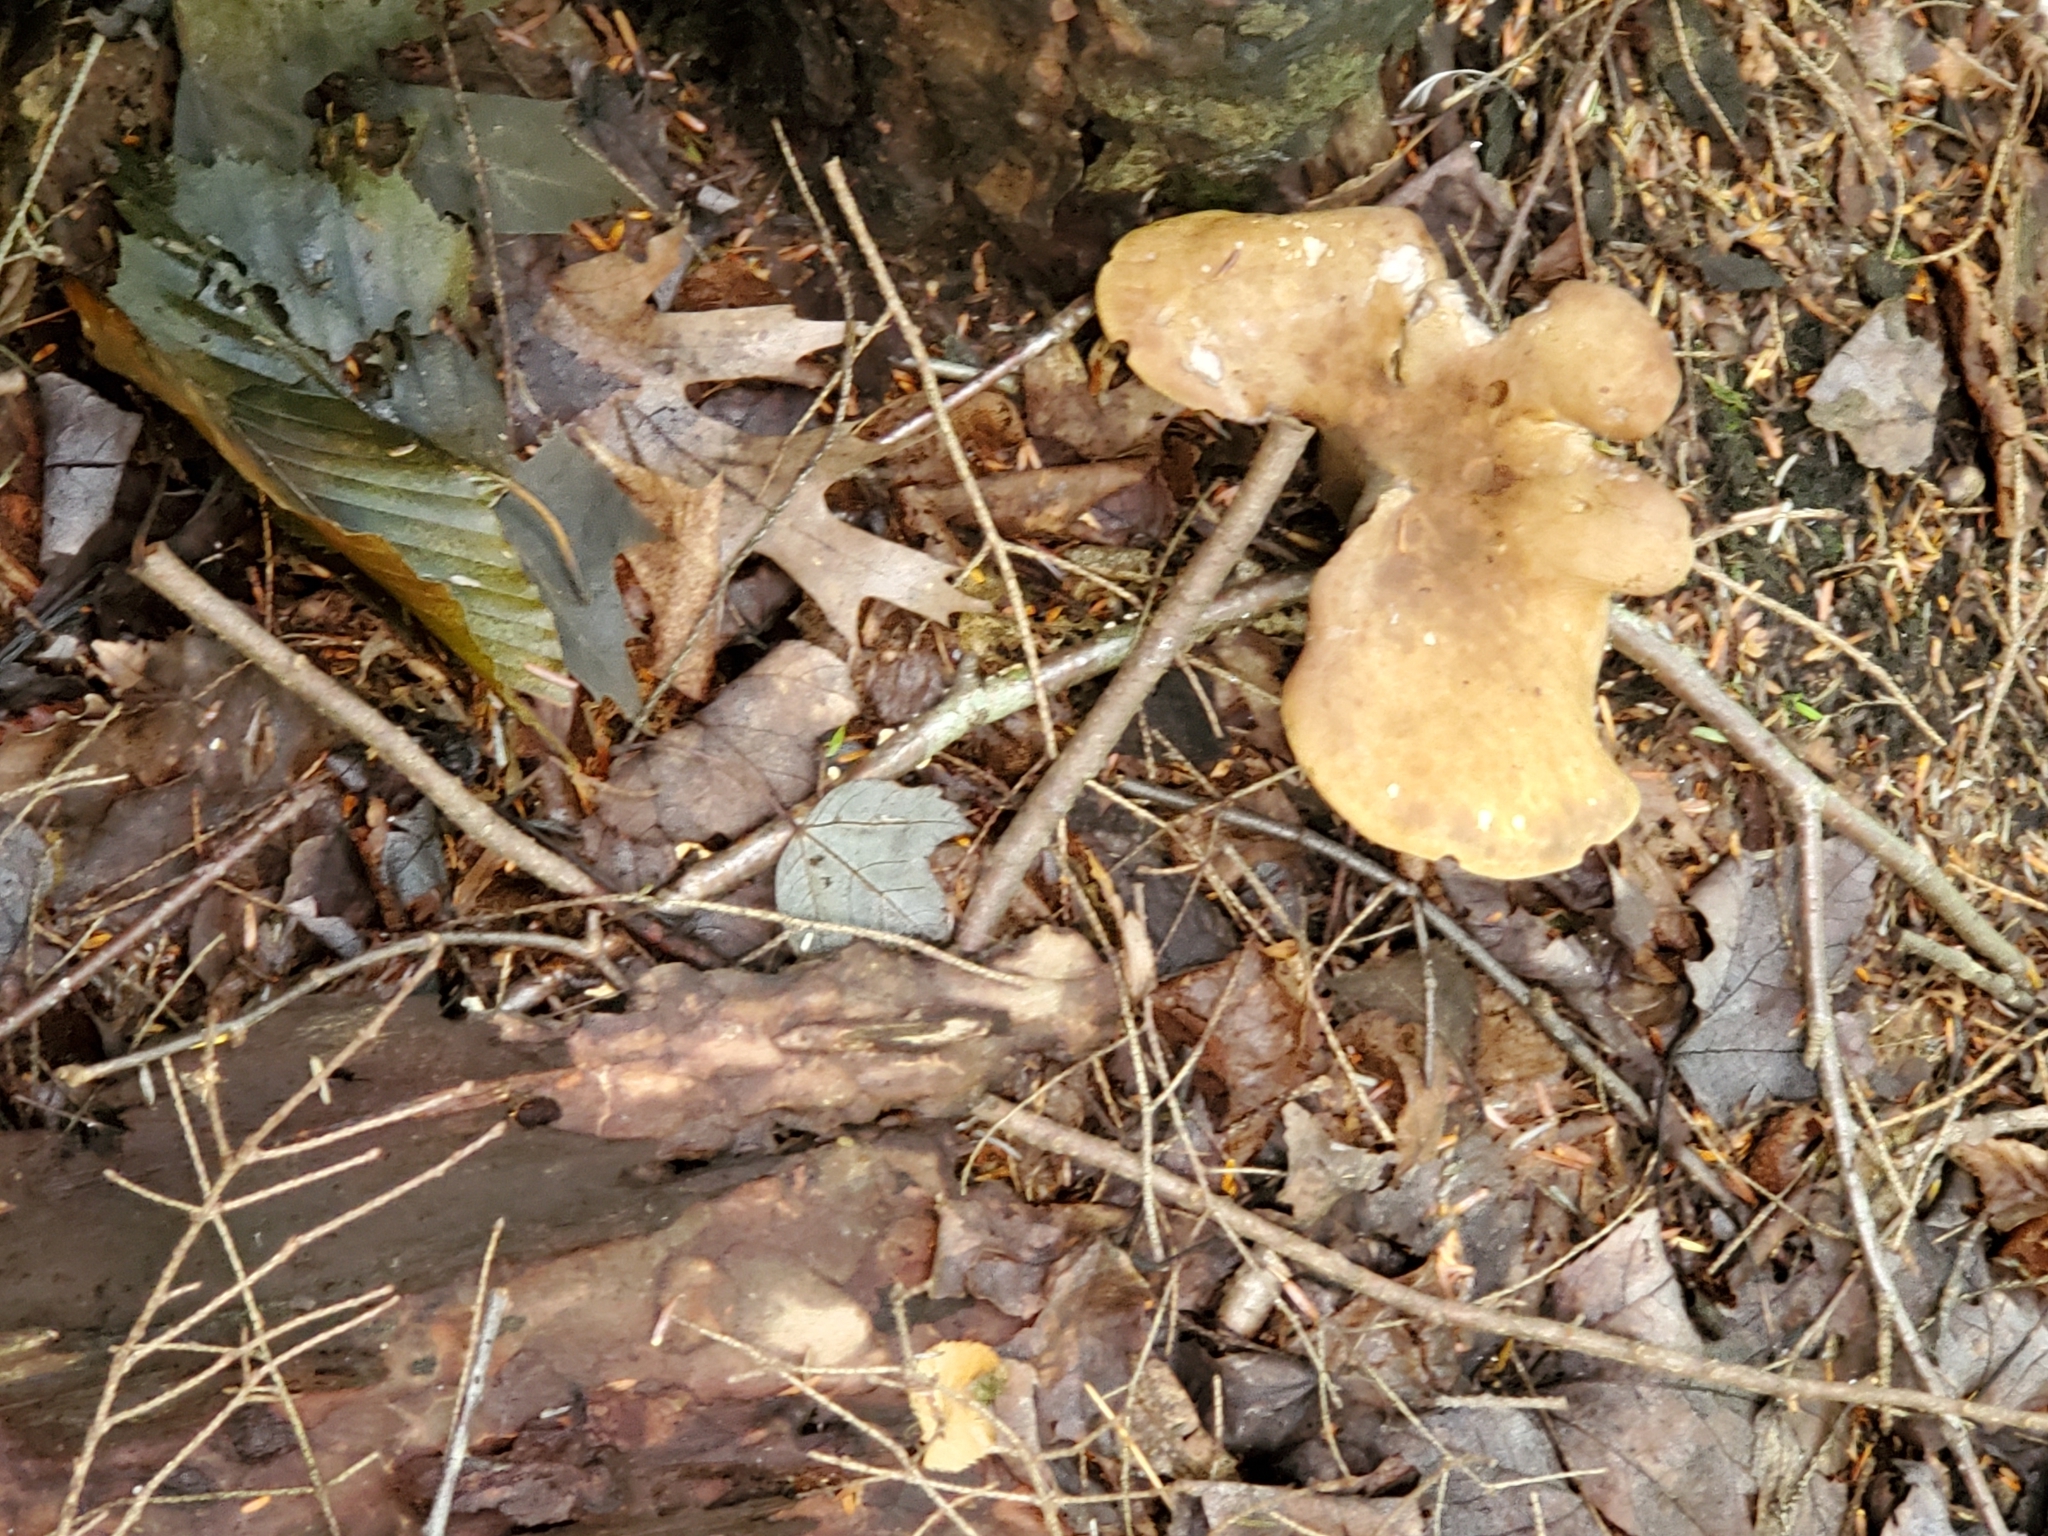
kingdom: Fungi
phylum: Basidiomycota
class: Agaricomycetes
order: Boletales
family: Tapinellaceae
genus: Tapinella
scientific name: Tapinella atrotomentosa
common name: Velvet rollrim
